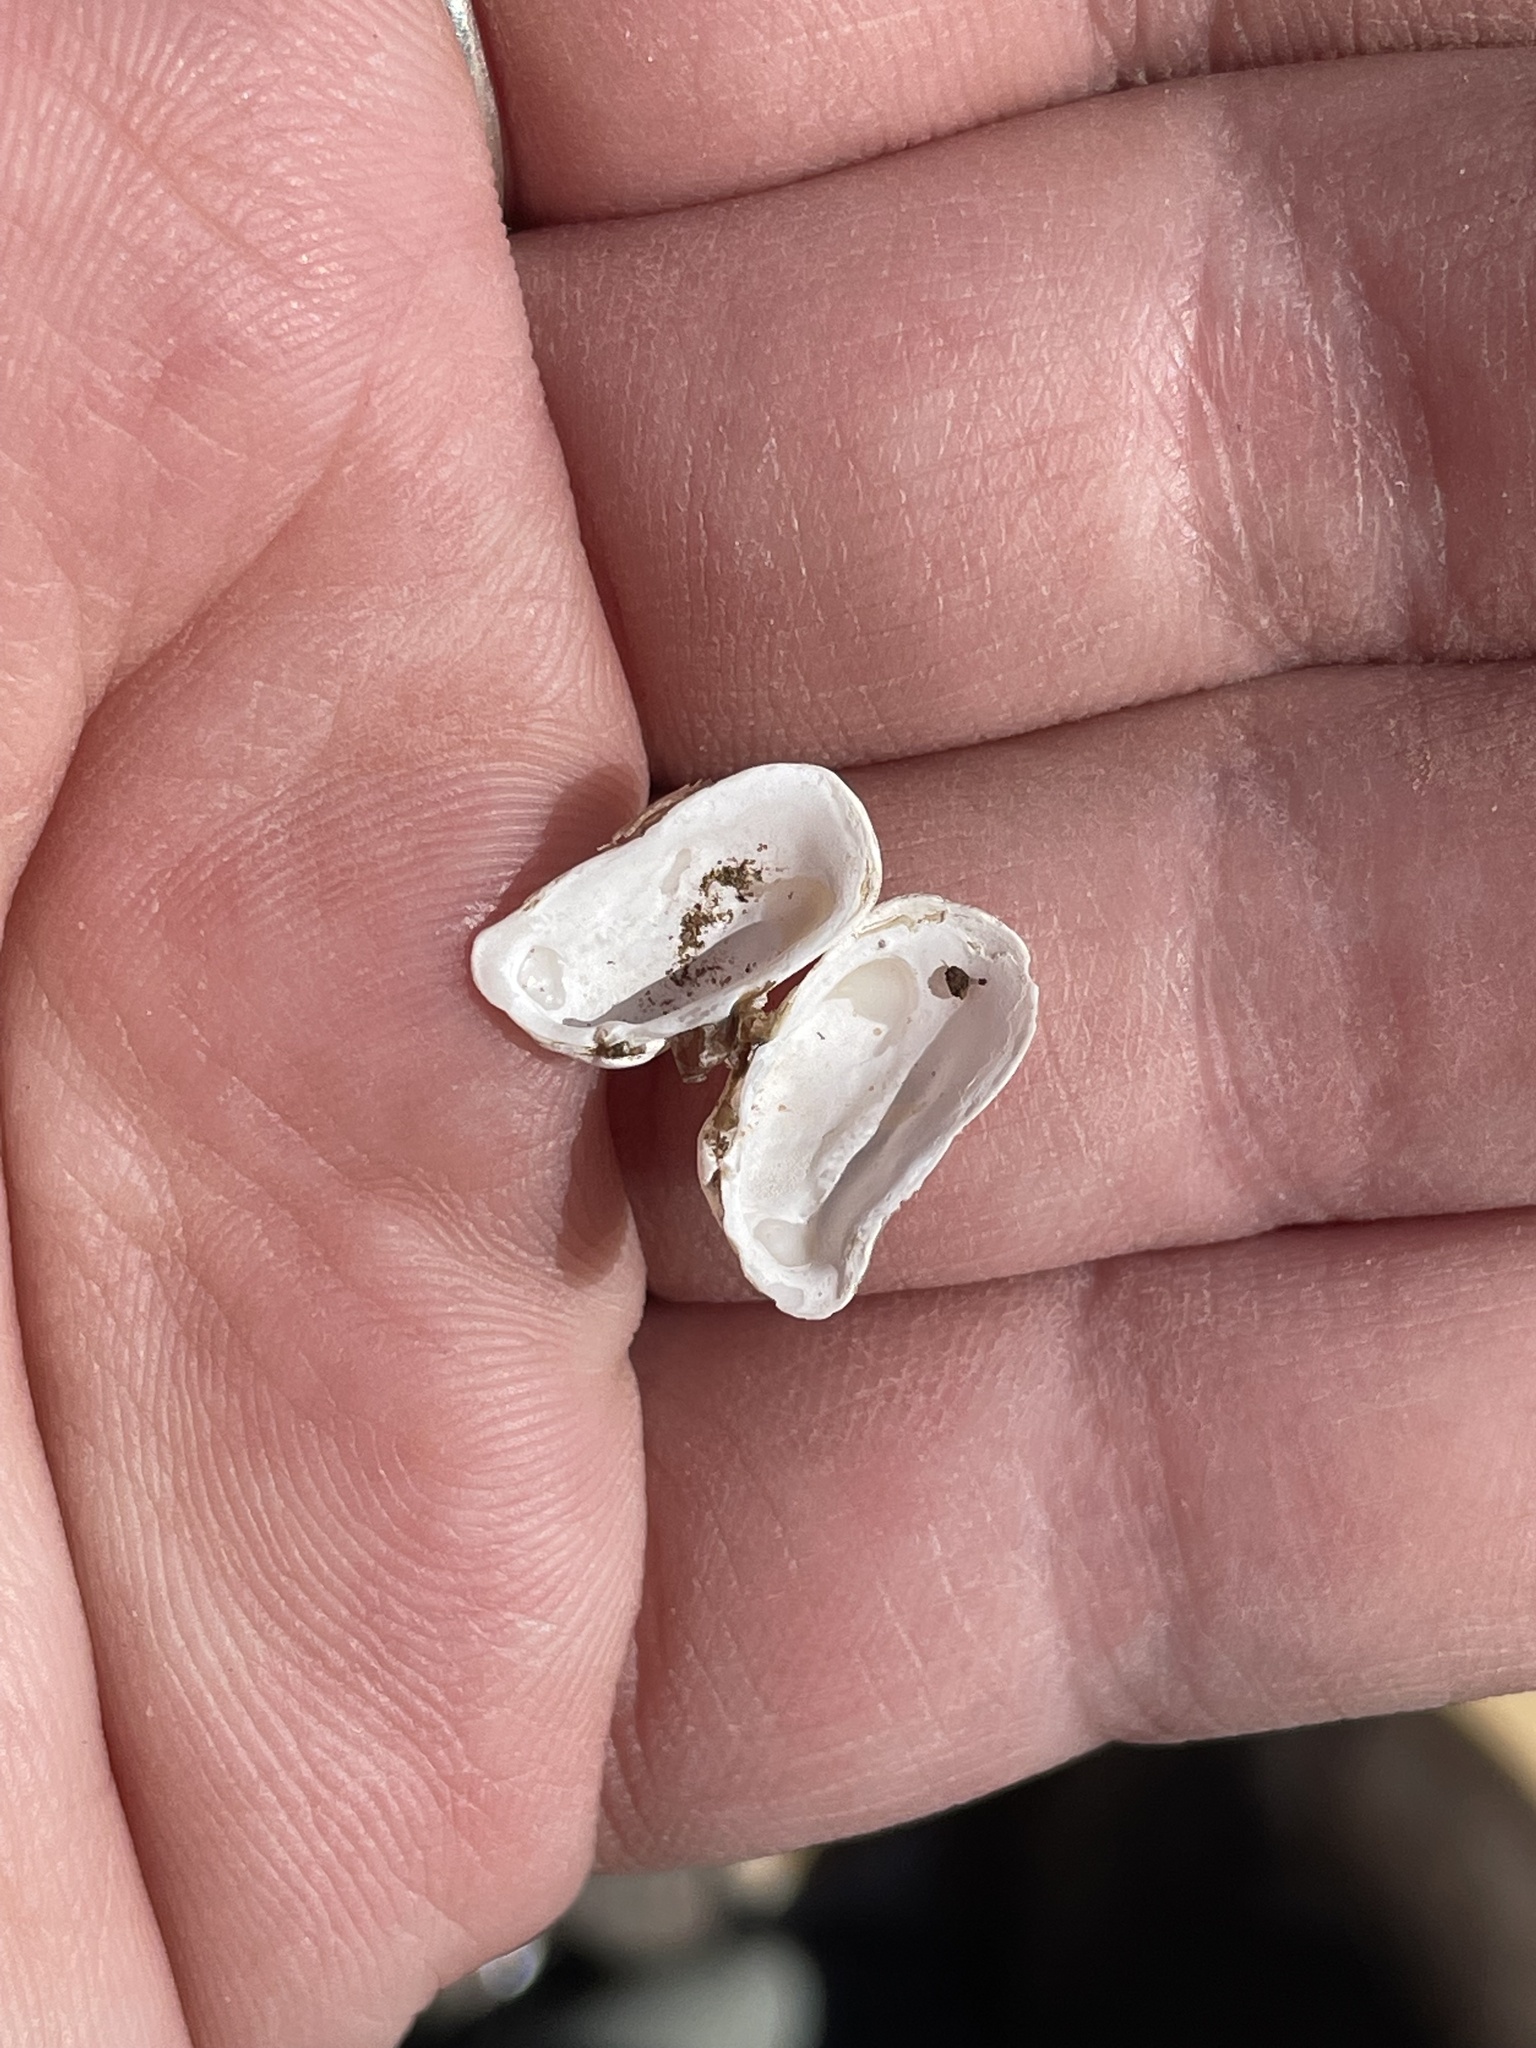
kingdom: Animalia
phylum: Mollusca
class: Bivalvia
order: Adapedonta
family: Hiatellidae
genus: Hiatella
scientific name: Hiatella arctica
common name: Arctic hiatella
